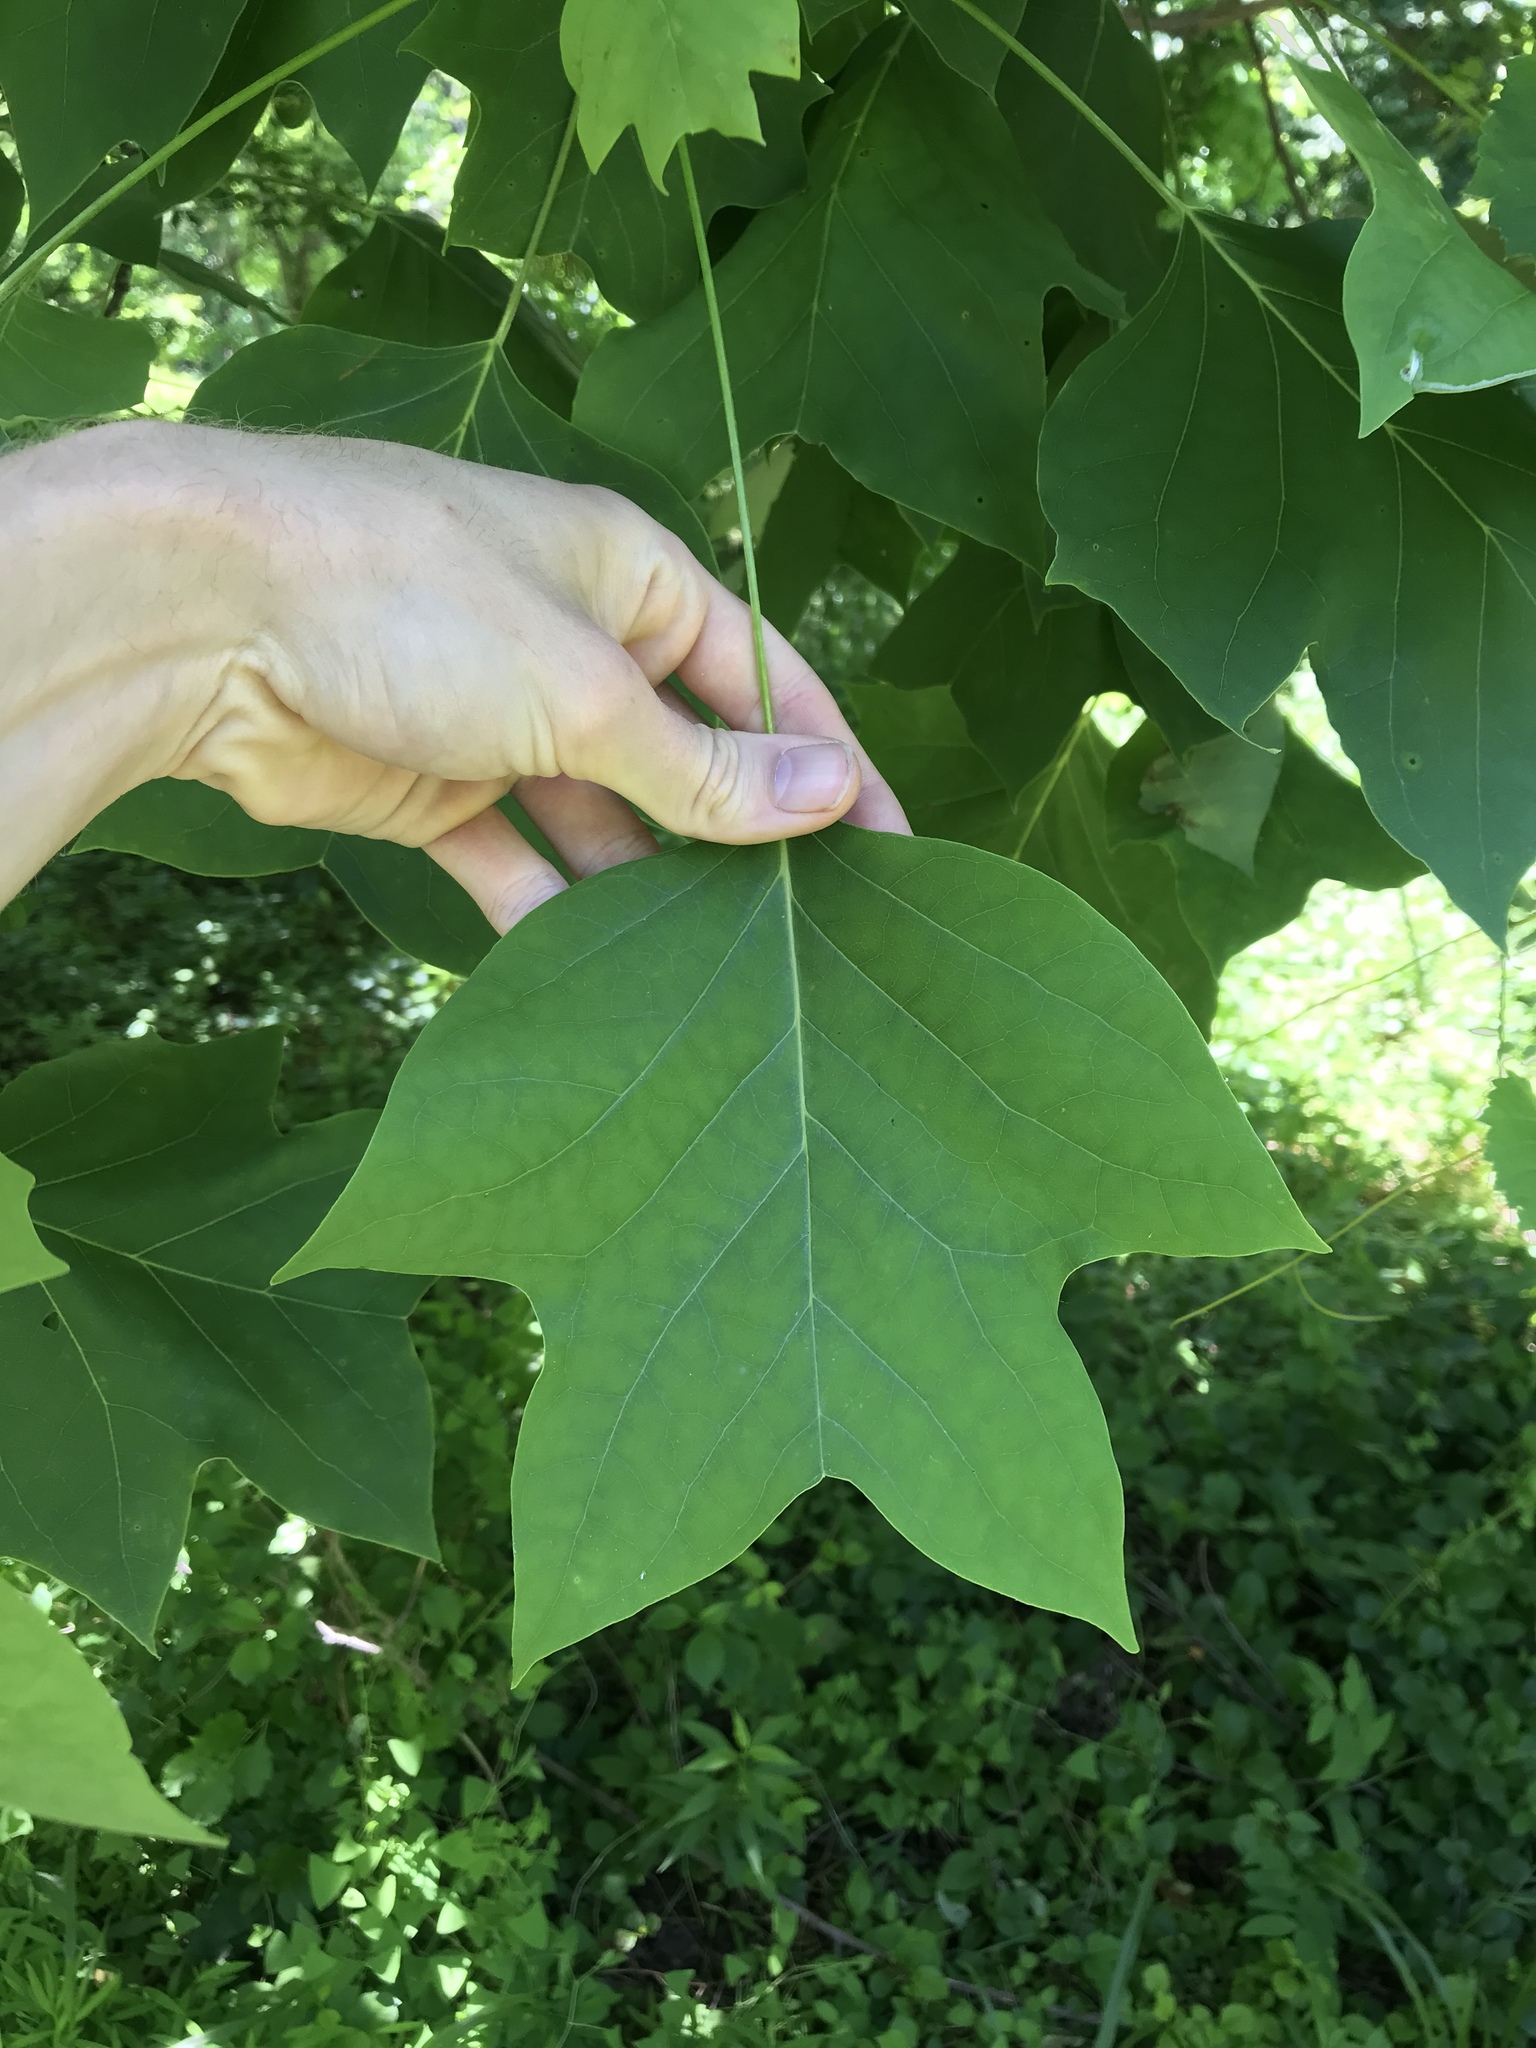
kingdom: Plantae
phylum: Tracheophyta
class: Magnoliopsida
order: Magnoliales
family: Magnoliaceae
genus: Liriodendron
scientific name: Liriodendron tulipifera
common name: Tulip tree
